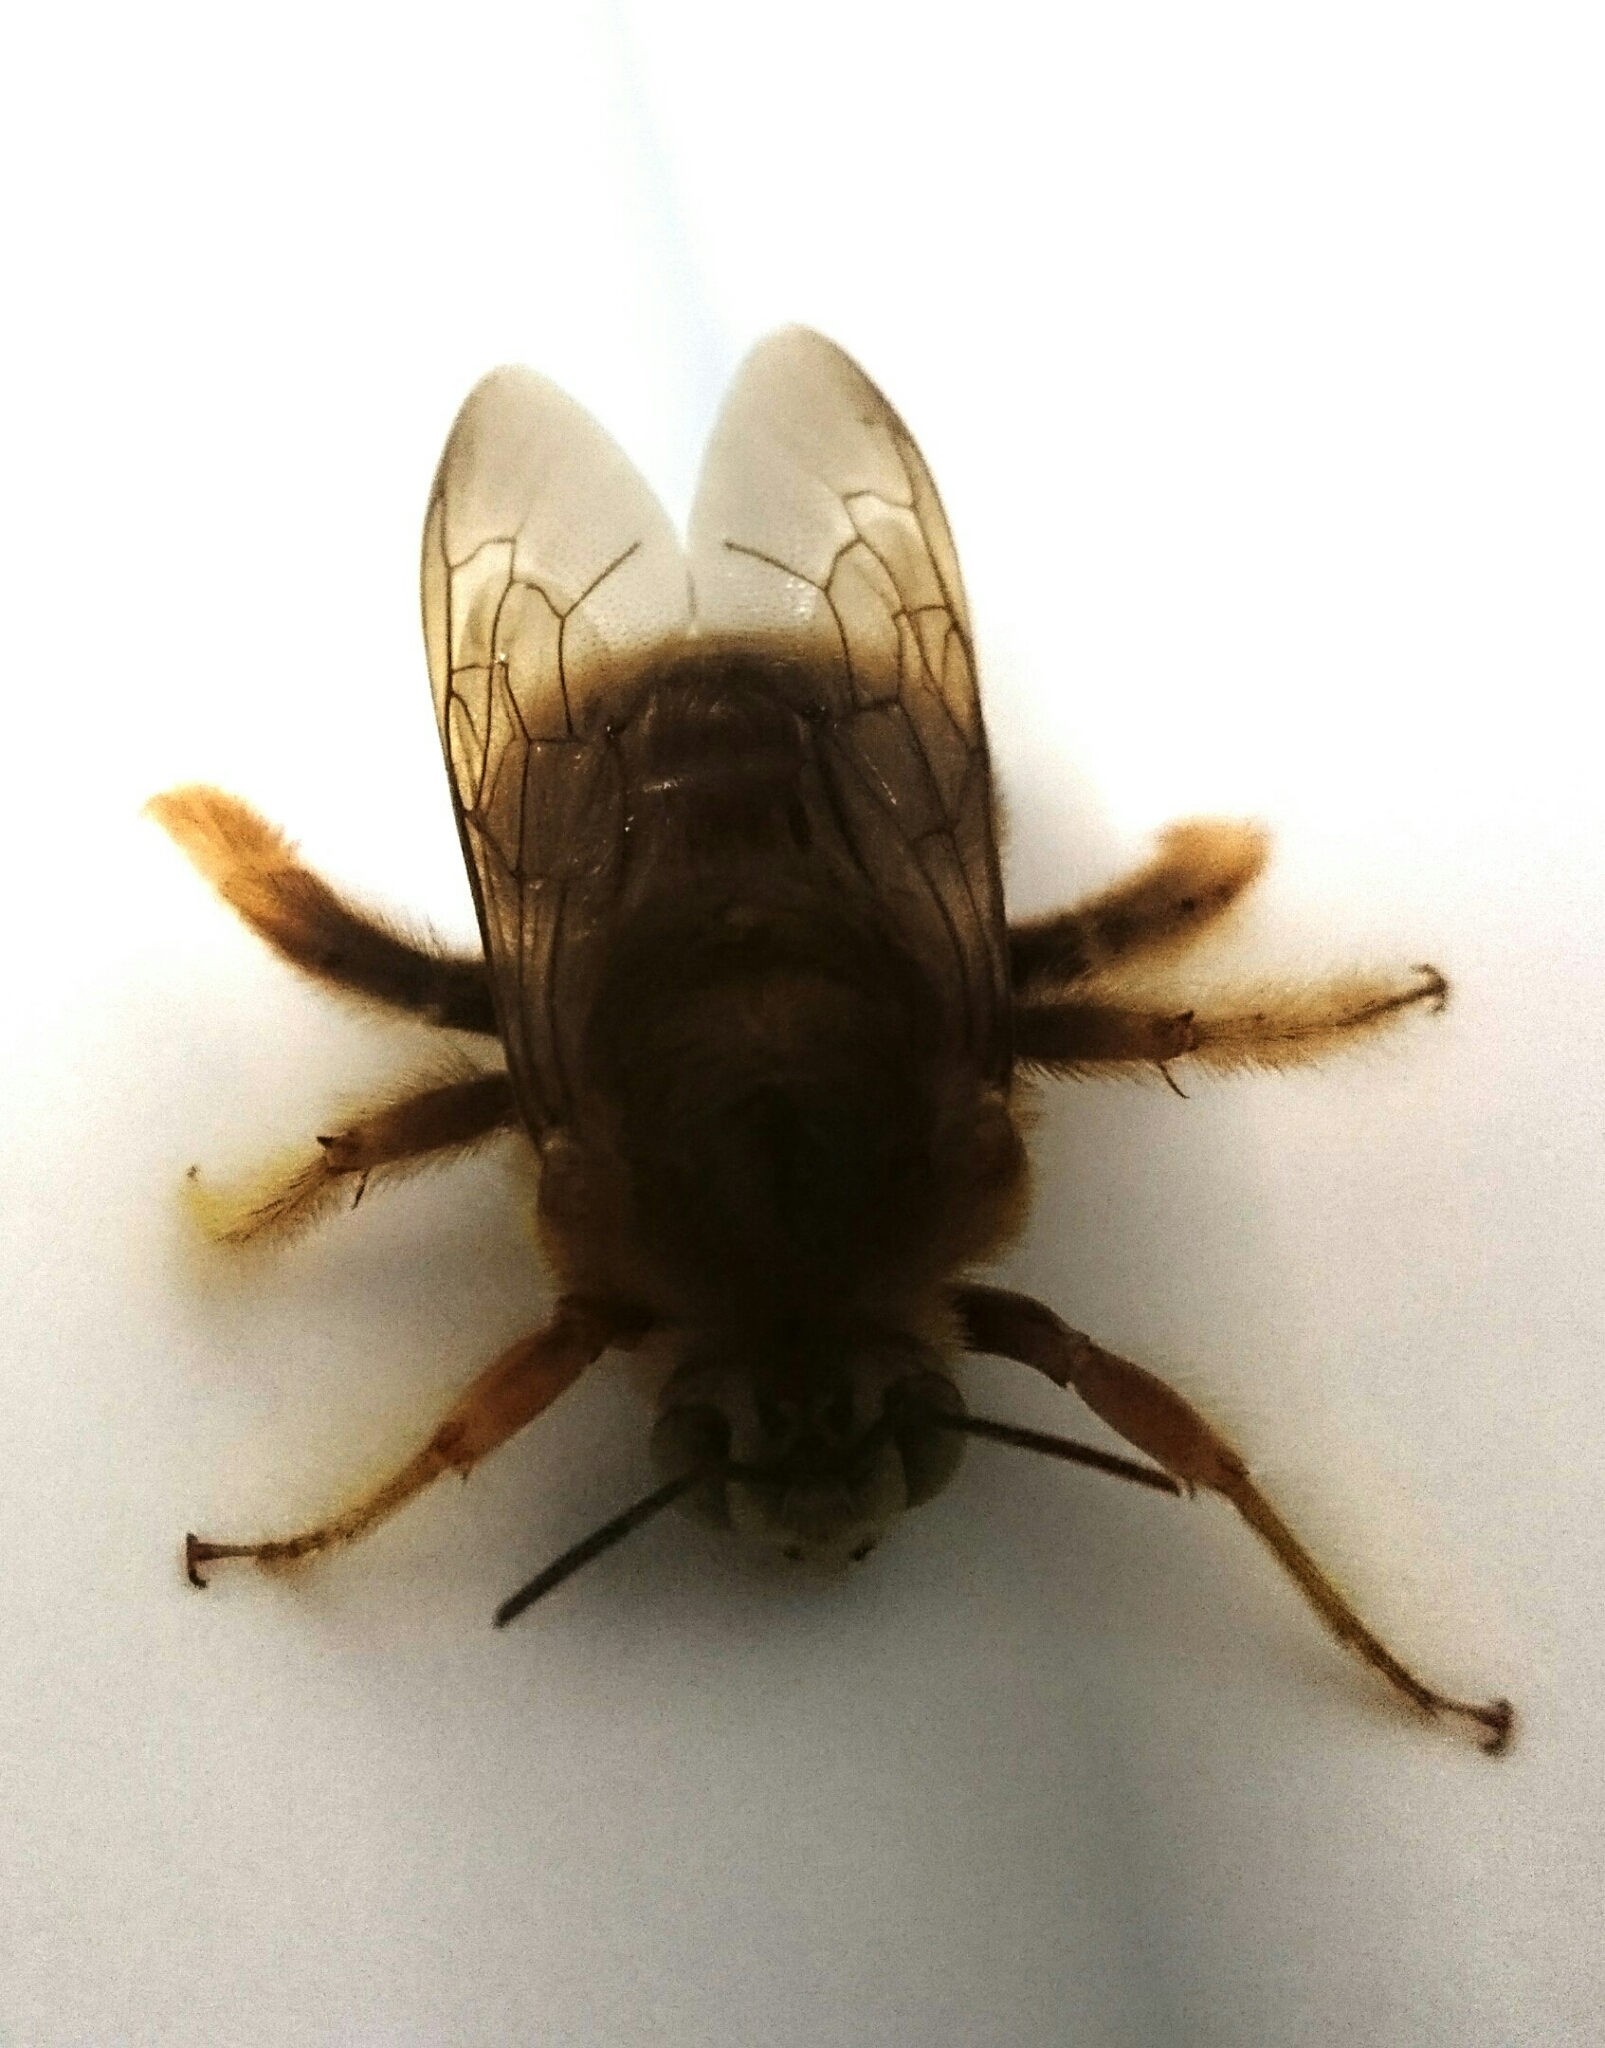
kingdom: Animalia
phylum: Arthropoda
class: Insecta
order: Hymenoptera
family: Apidae
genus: Xylocopa
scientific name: Xylocopa darwini
